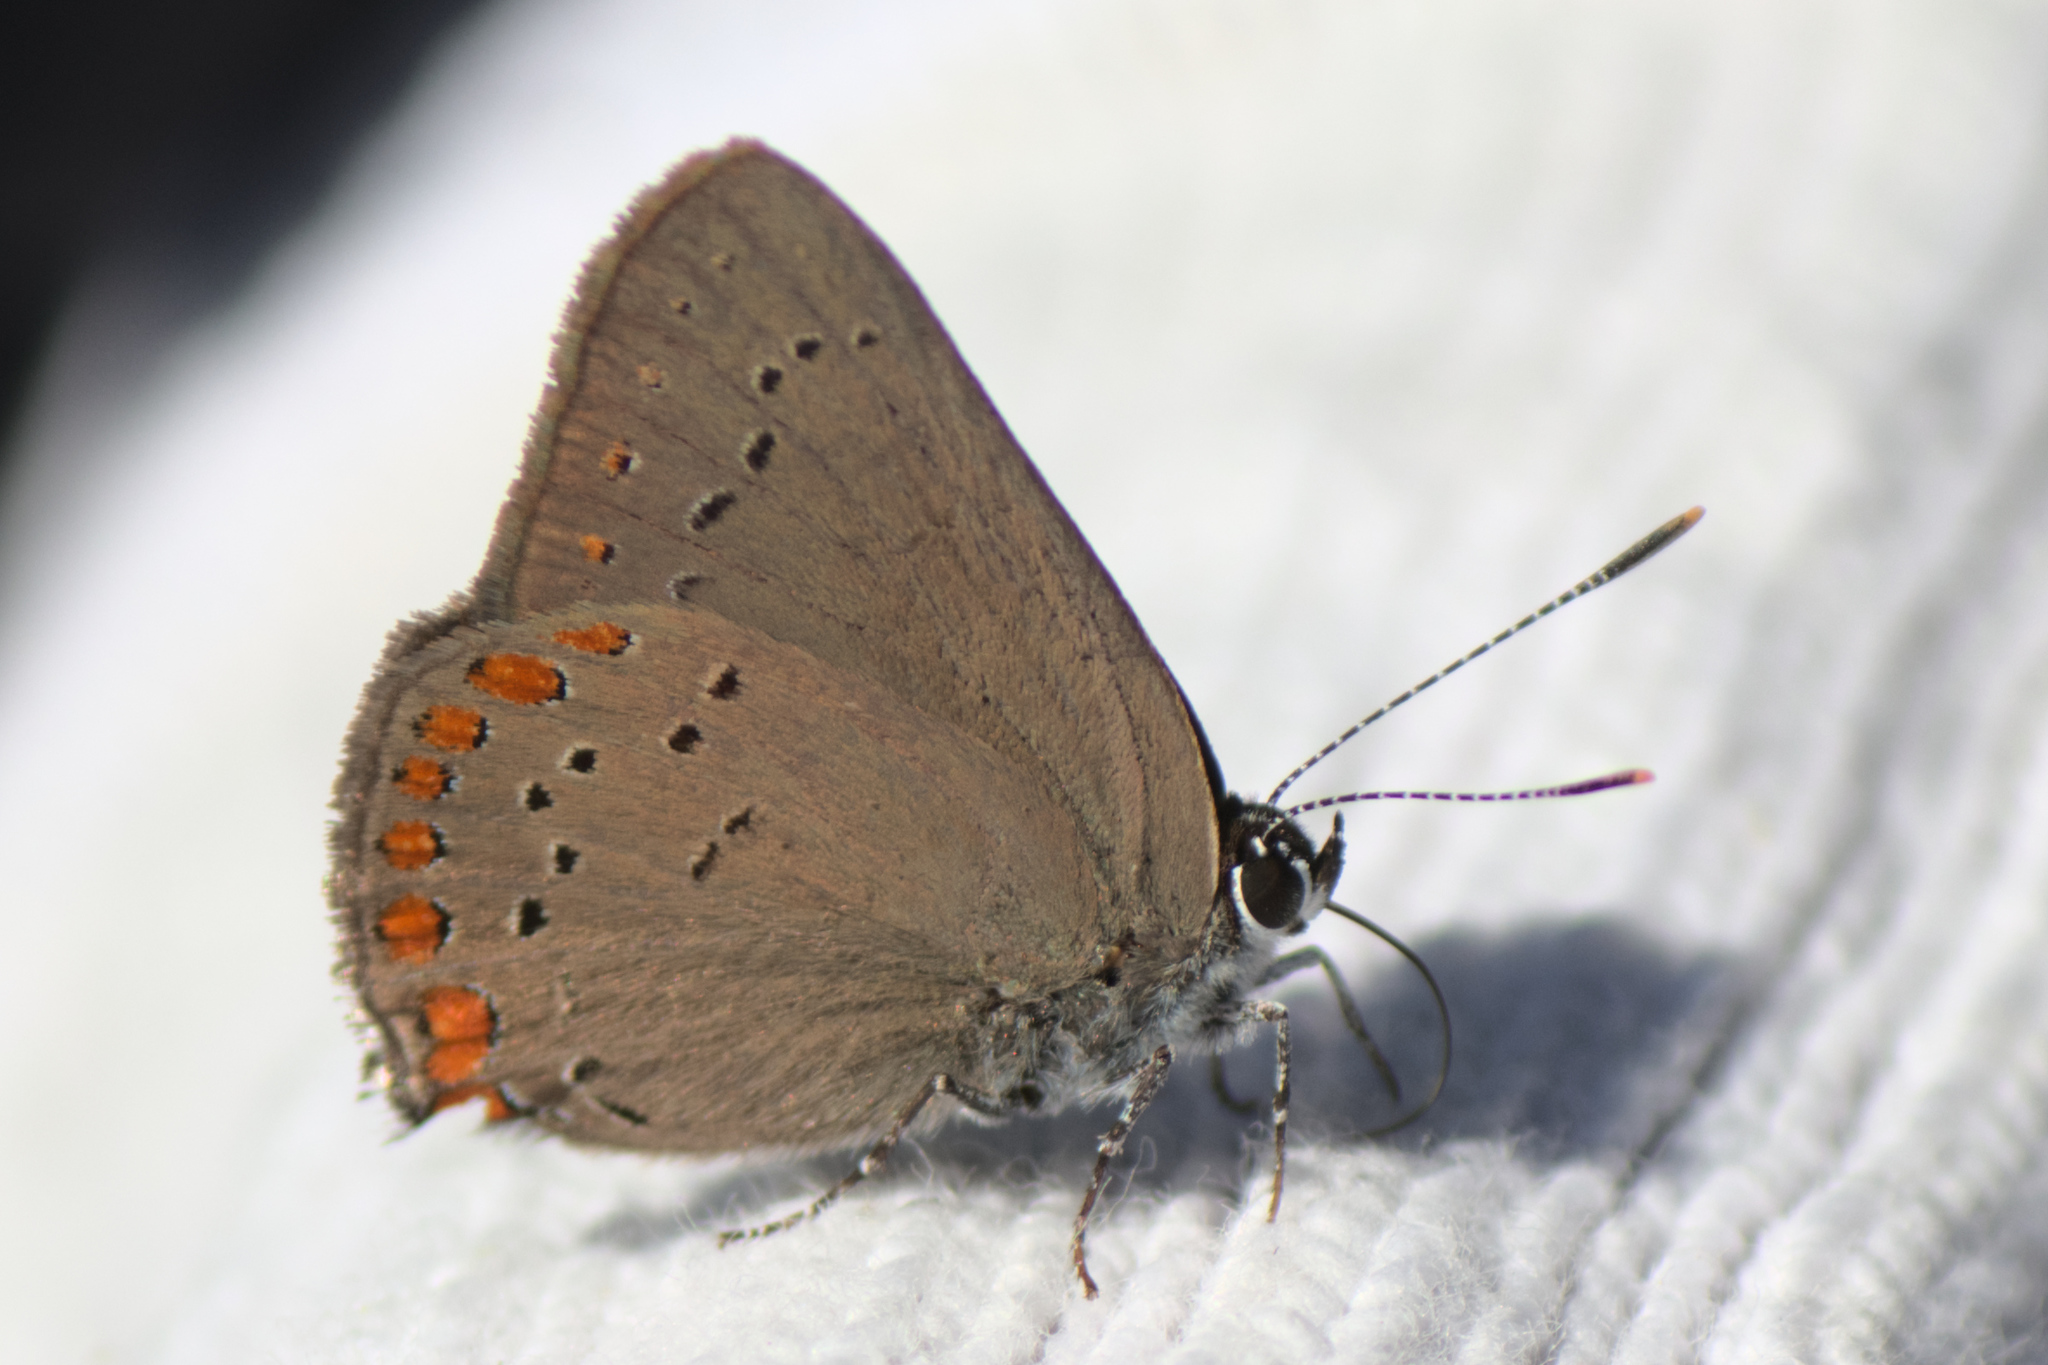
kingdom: Animalia
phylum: Arthropoda
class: Insecta
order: Lepidoptera
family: Lycaenidae
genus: Harkenclenus
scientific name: Harkenclenus titus
